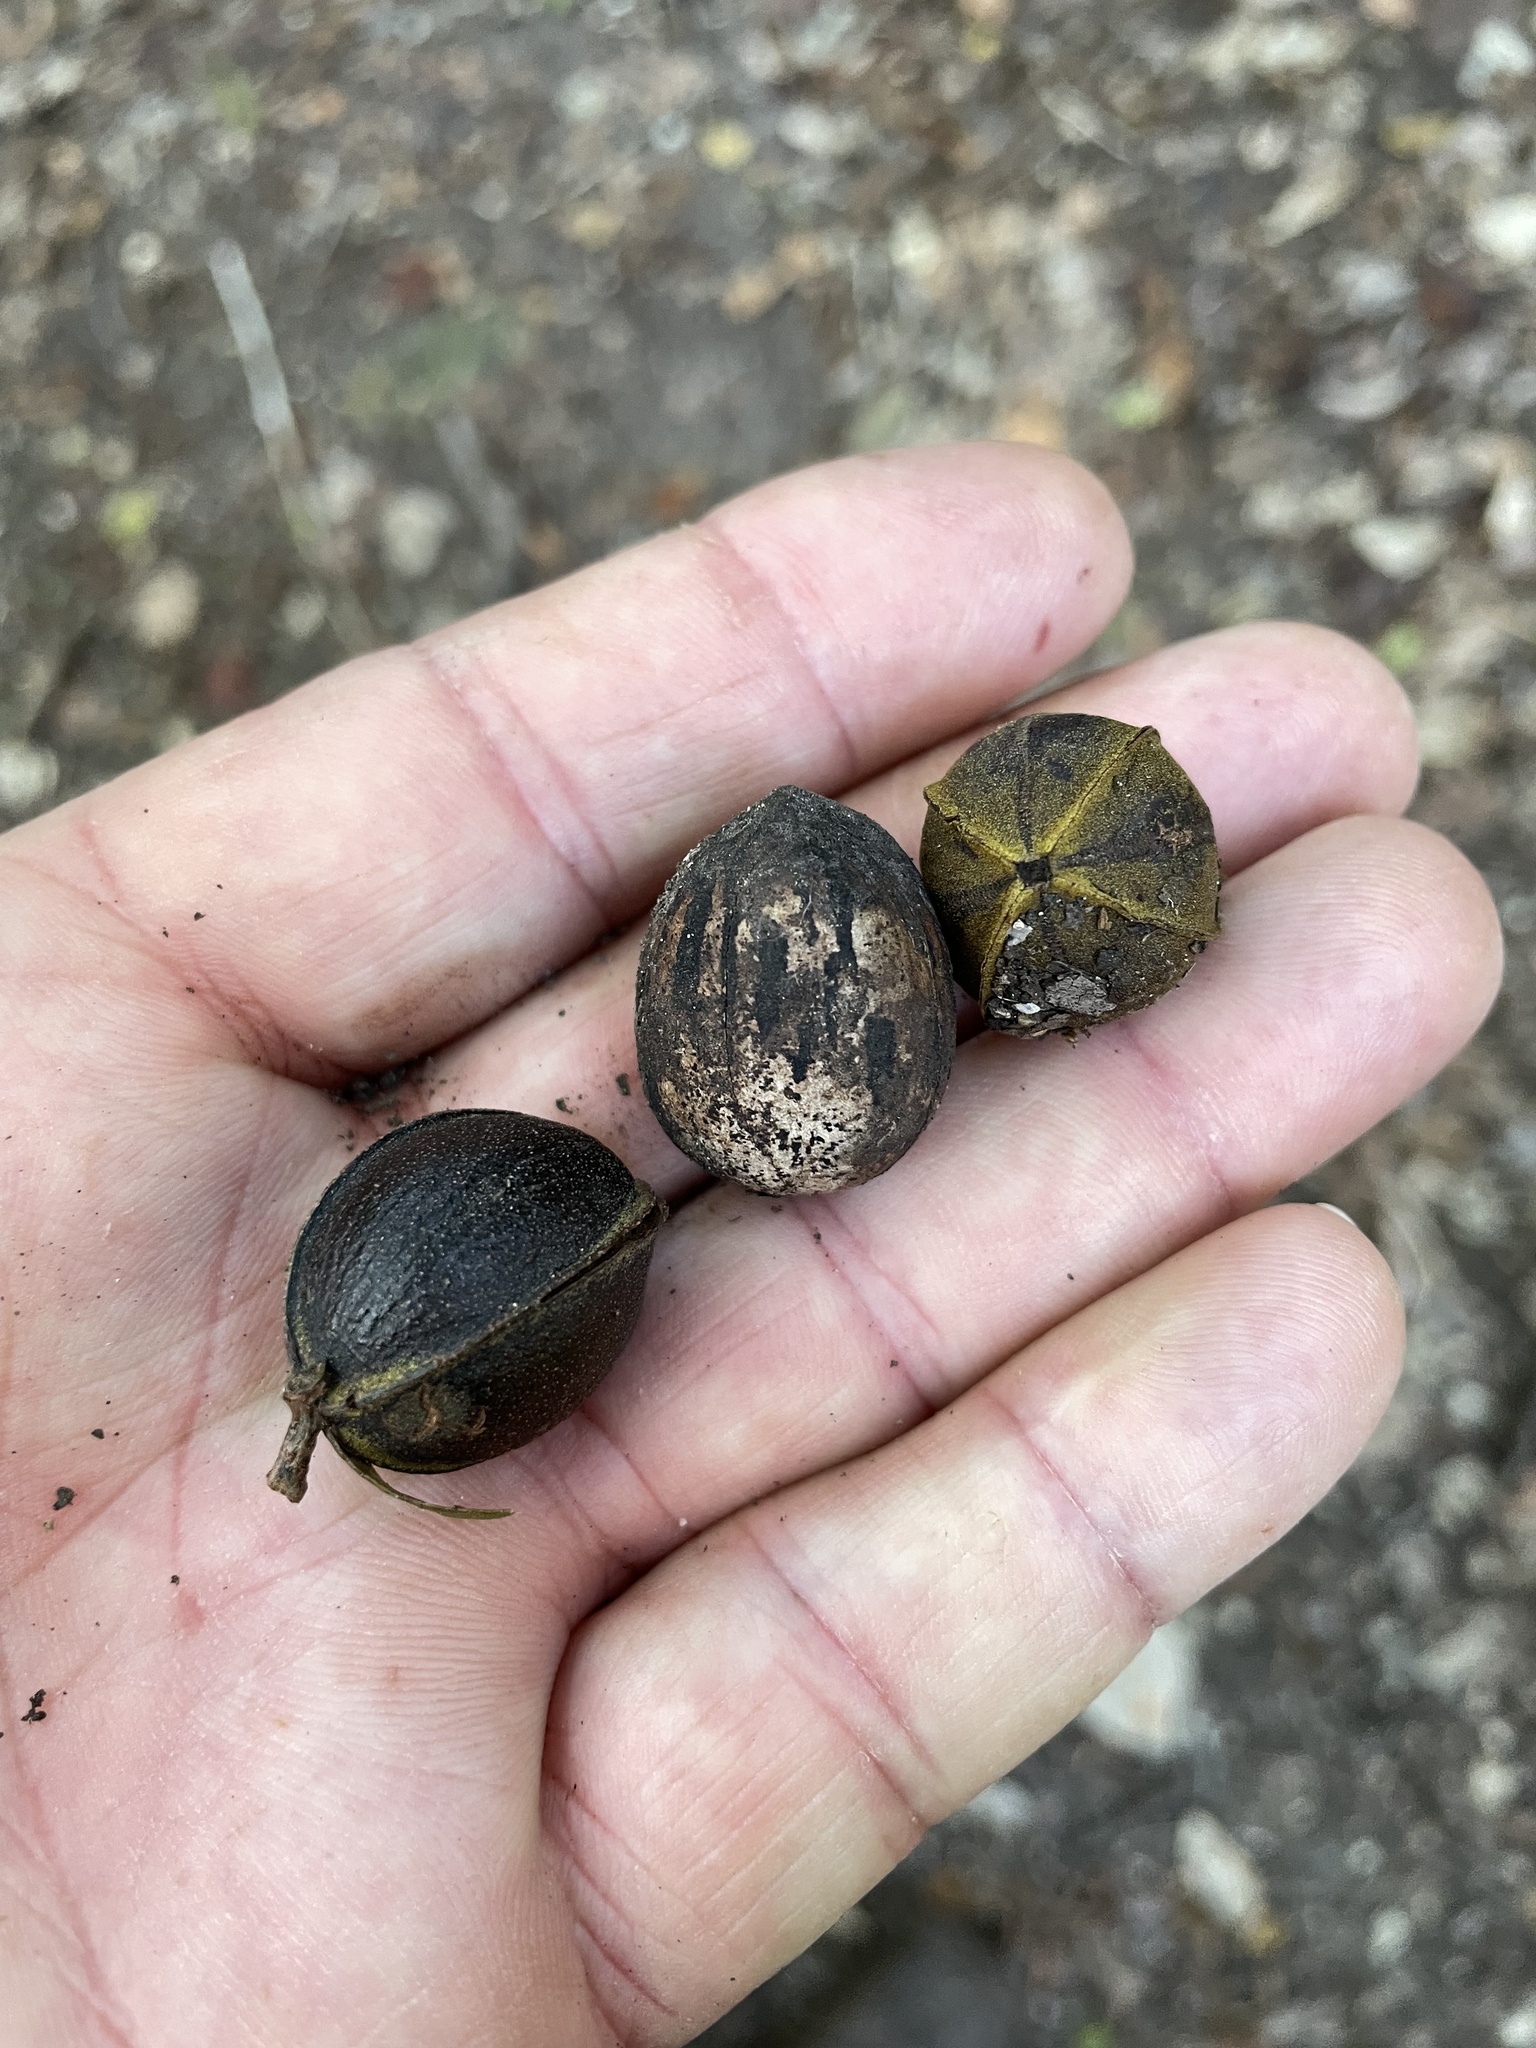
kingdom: Plantae
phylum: Tracheophyta
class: Magnoliopsida
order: Fagales
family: Juglandaceae
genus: Carya
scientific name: Carya illinoinensis
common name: Pecan
